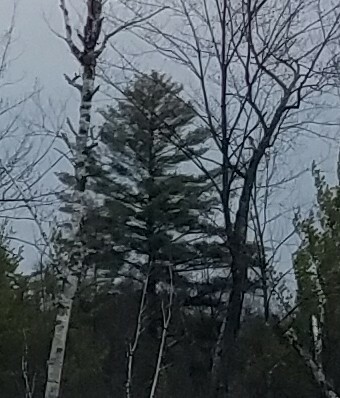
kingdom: Plantae
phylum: Tracheophyta
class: Pinopsida
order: Pinales
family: Pinaceae
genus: Pinus
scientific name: Pinus strobus
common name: Weymouth pine
